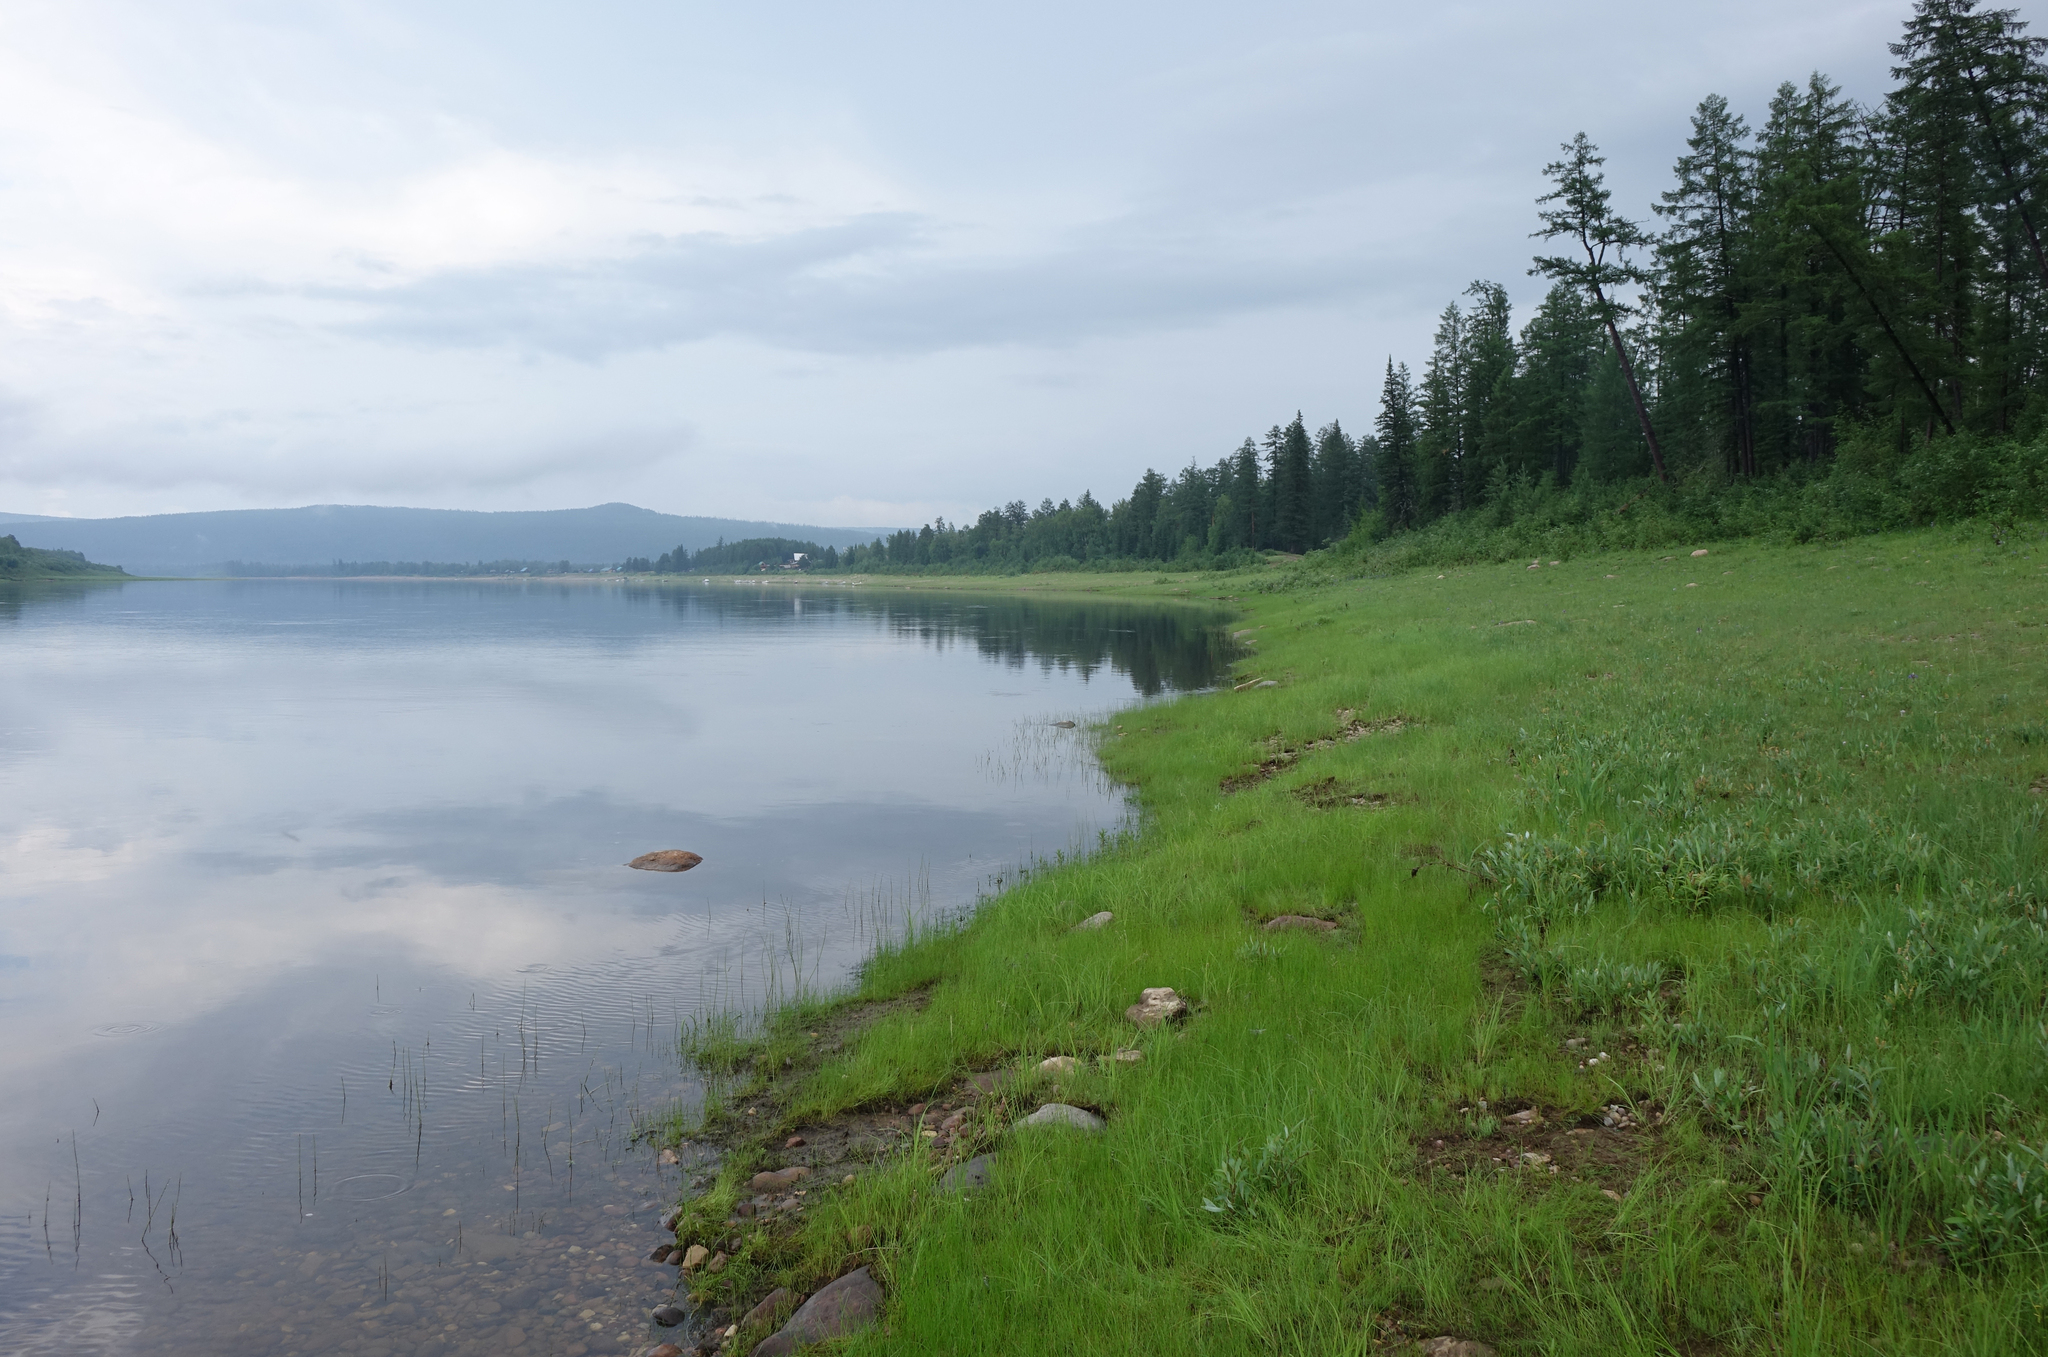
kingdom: Animalia
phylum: Arthropoda
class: Insecta
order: Odonata
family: Gomphidae
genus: Ophiogomphus
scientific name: Ophiogomphus obscurus
